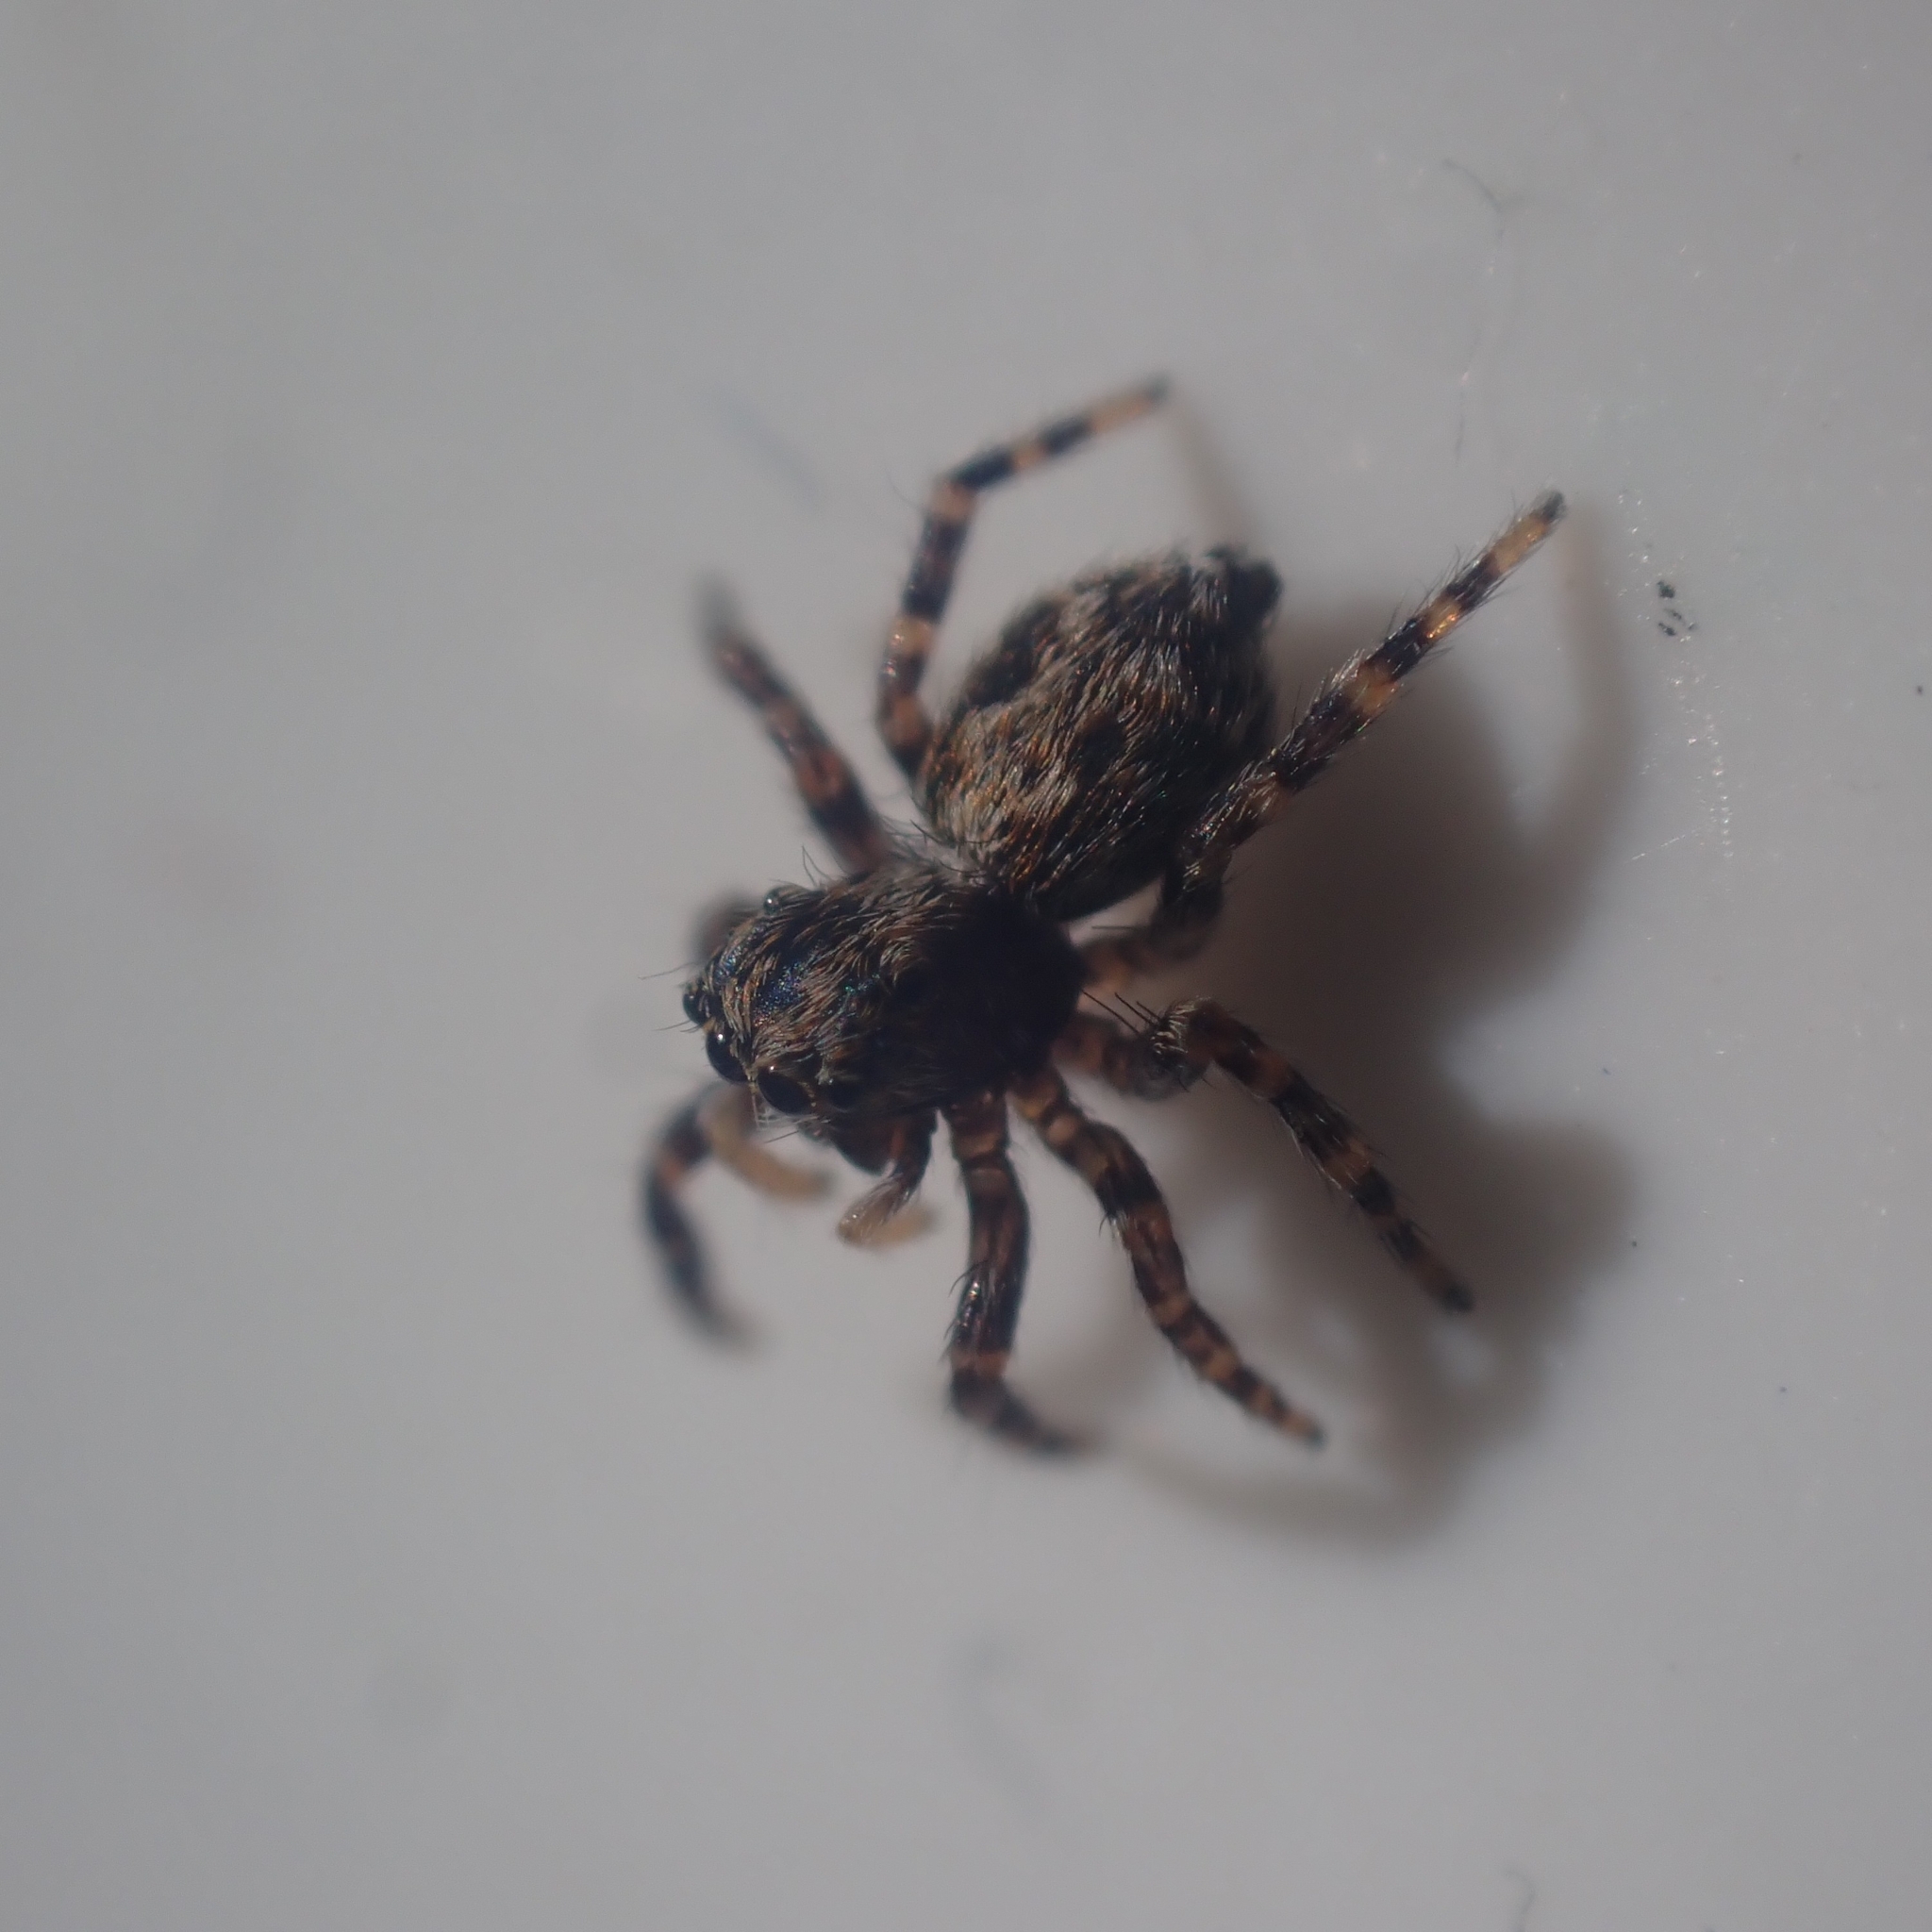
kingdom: Animalia
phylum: Arthropoda
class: Arachnida
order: Araneae
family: Salticidae
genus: Pseudeuophrys
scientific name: Pseudeuophrys lanigera
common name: Jumping spider
